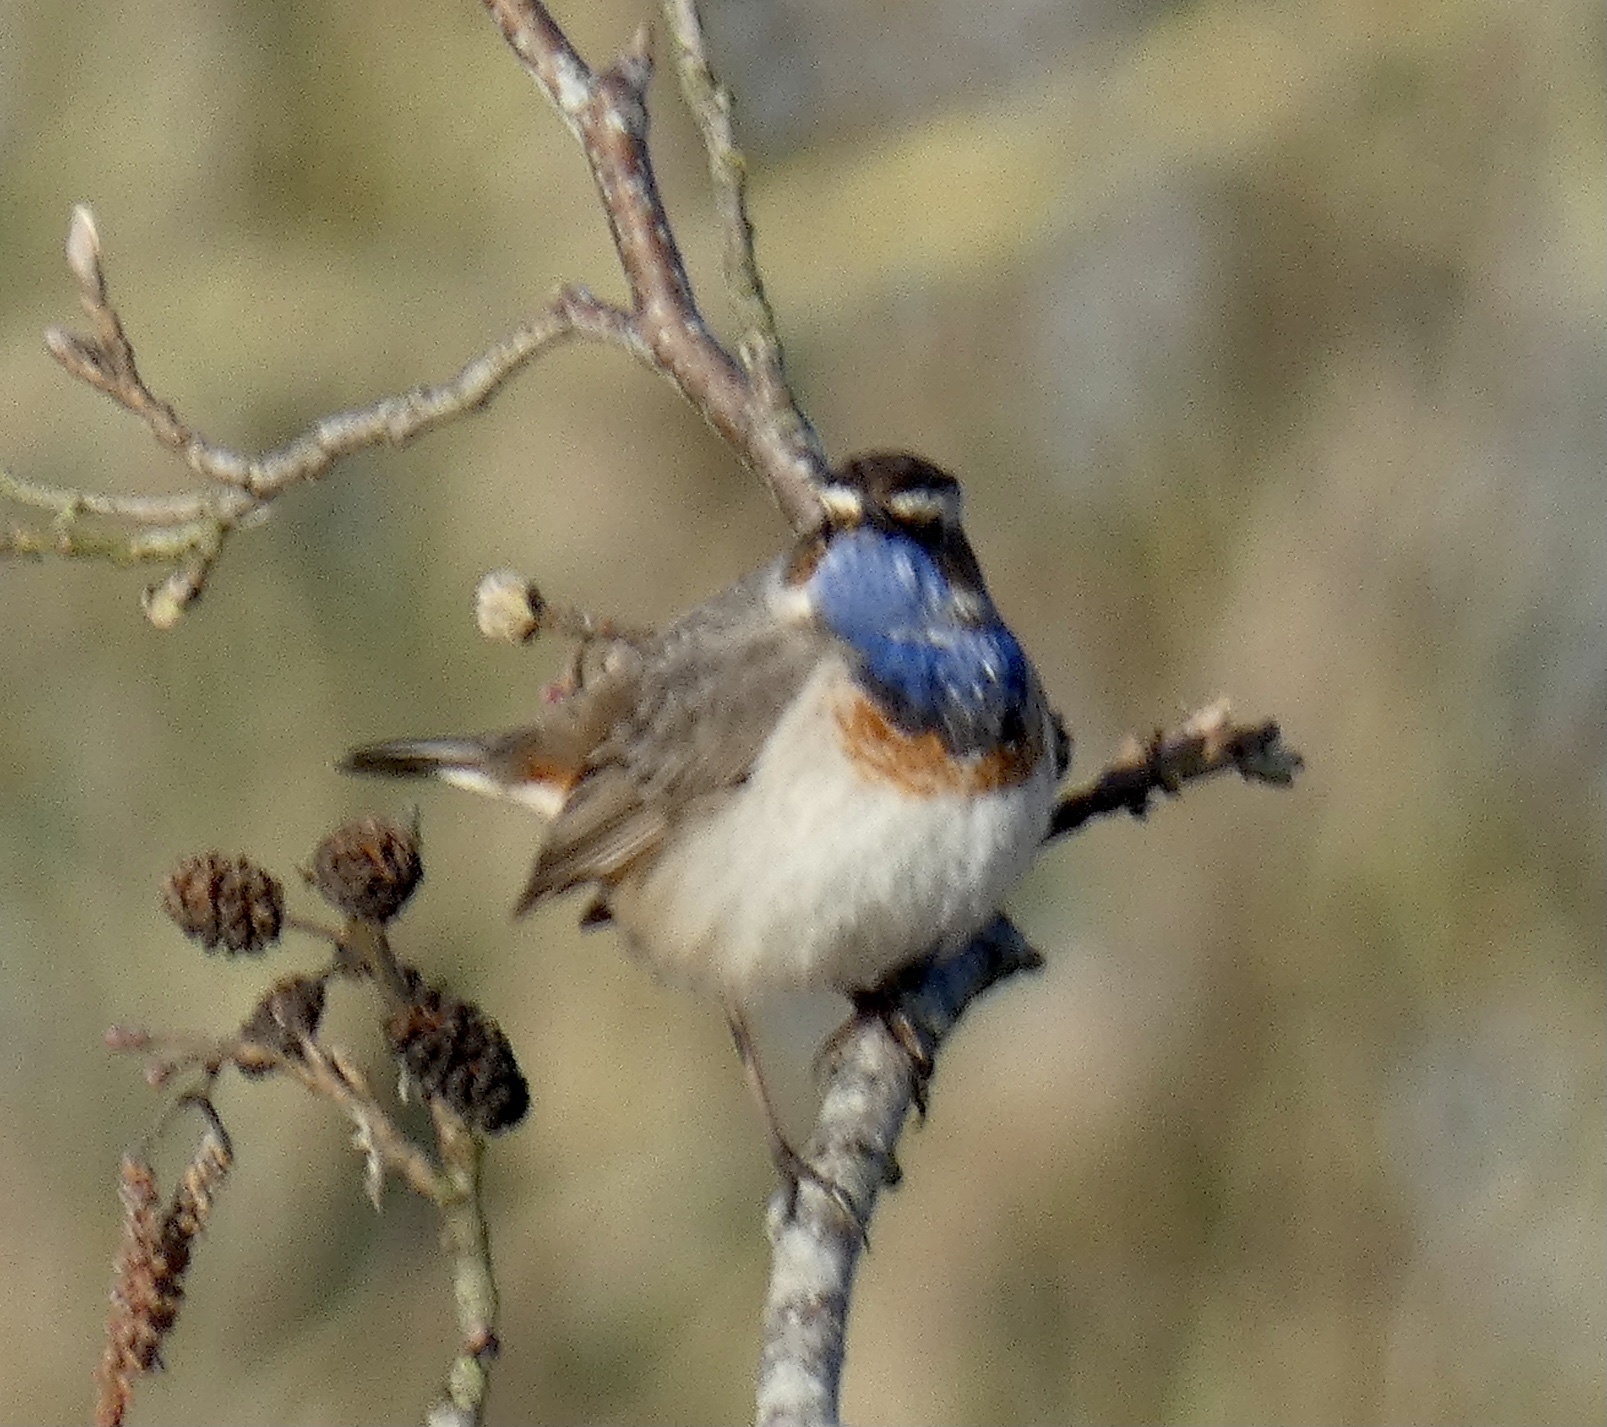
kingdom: Animalia
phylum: Chordata
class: Aves
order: Passeriformes
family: Muscicapidae
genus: Luscinia
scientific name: Luscinia svecica
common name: Bluethroat
